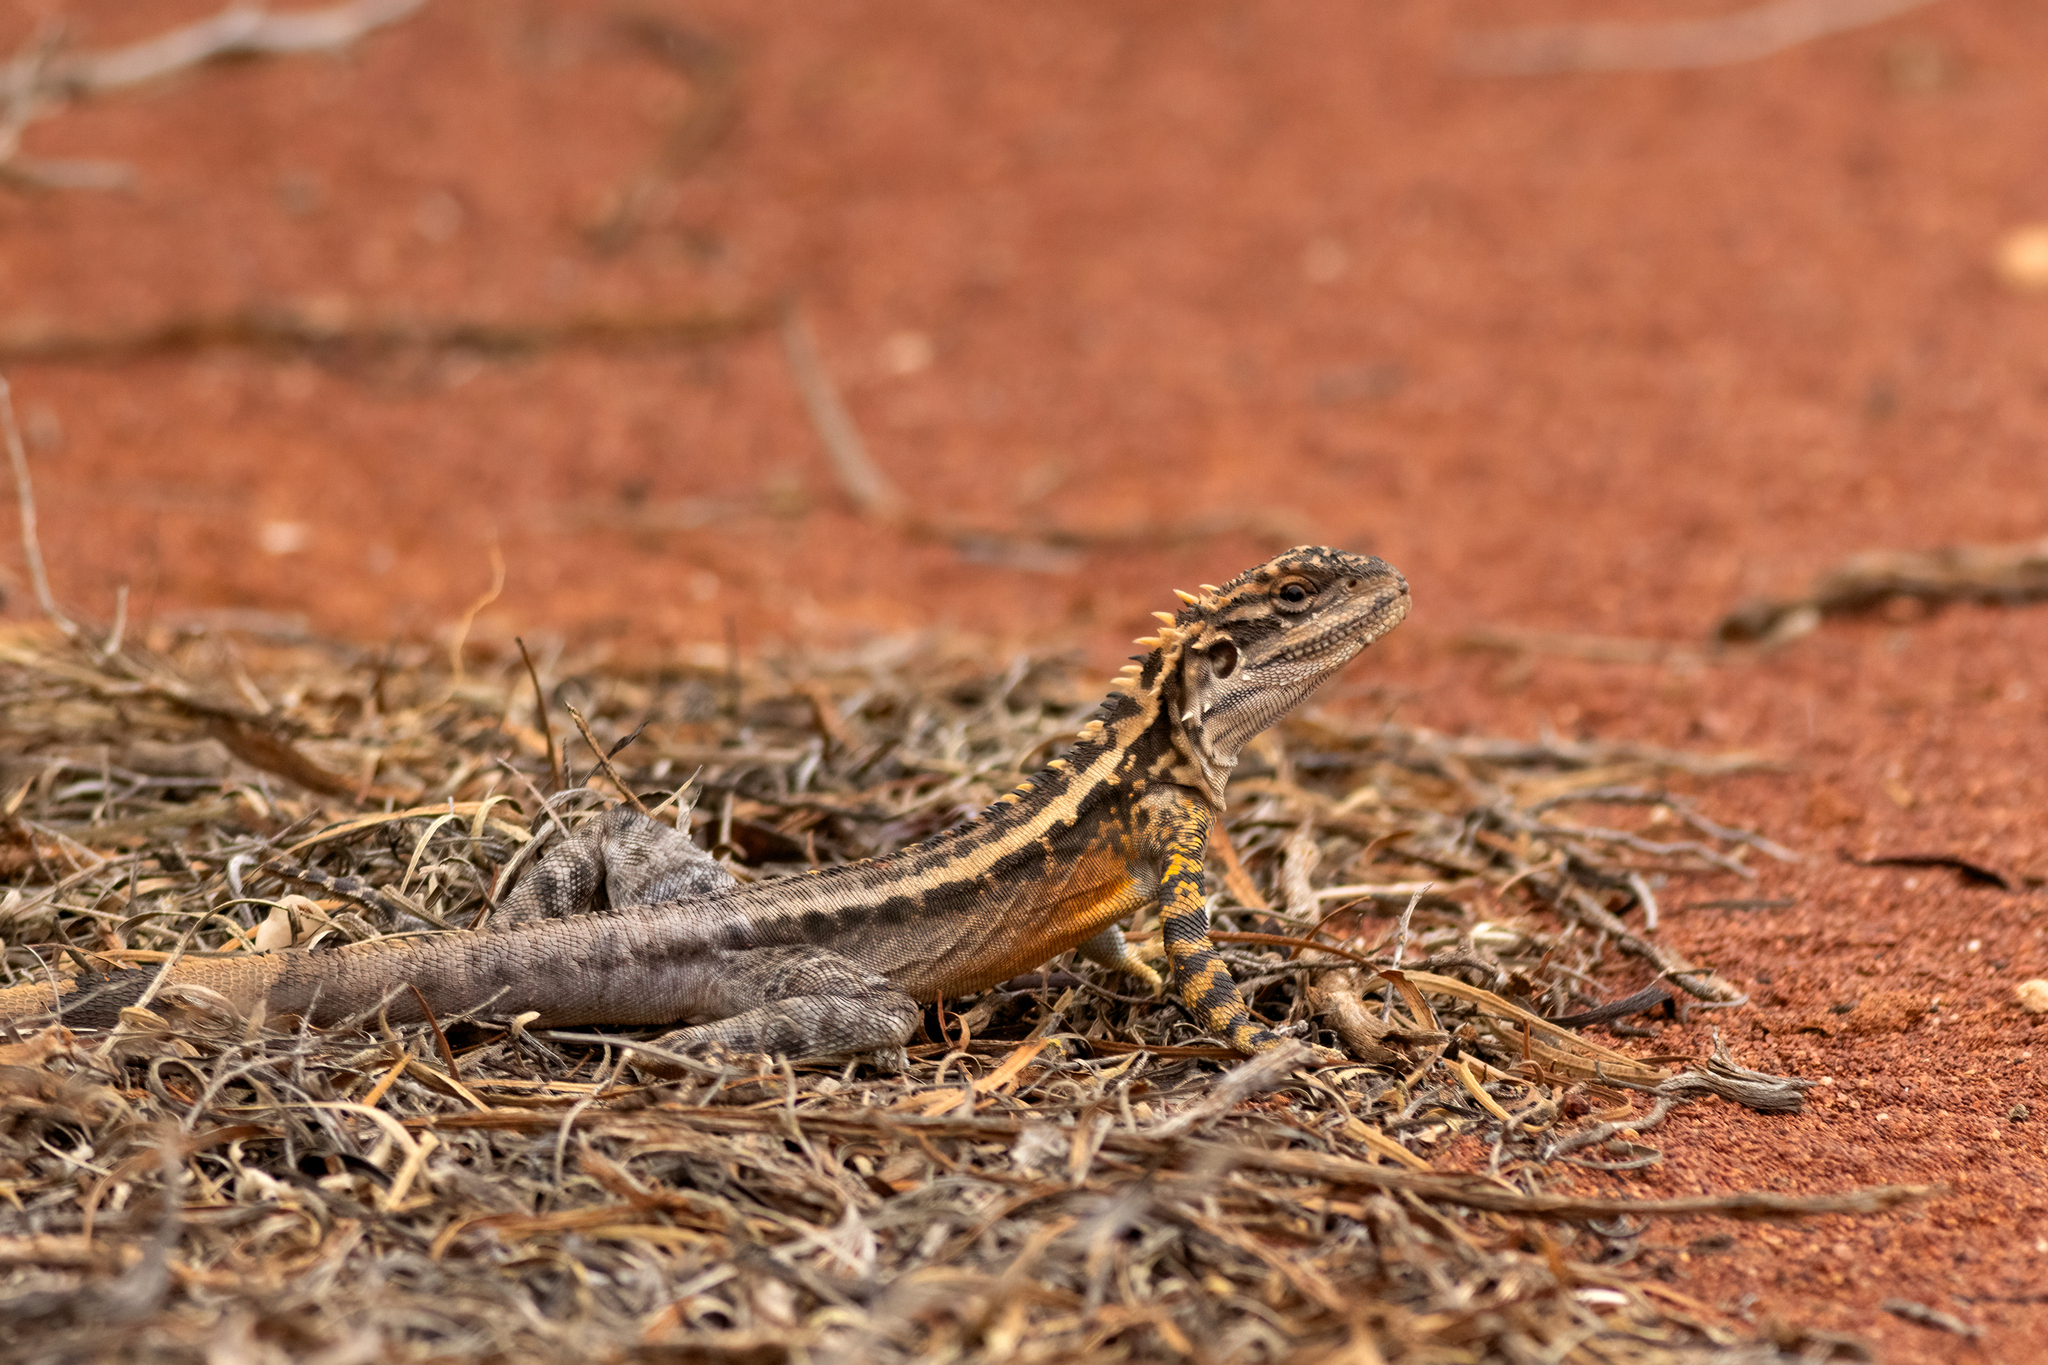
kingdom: Animalia
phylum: Chordata
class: Squamata
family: Agamidae
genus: Ctenophorus
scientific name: Ctenophorus cristatus
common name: Crested dragon
